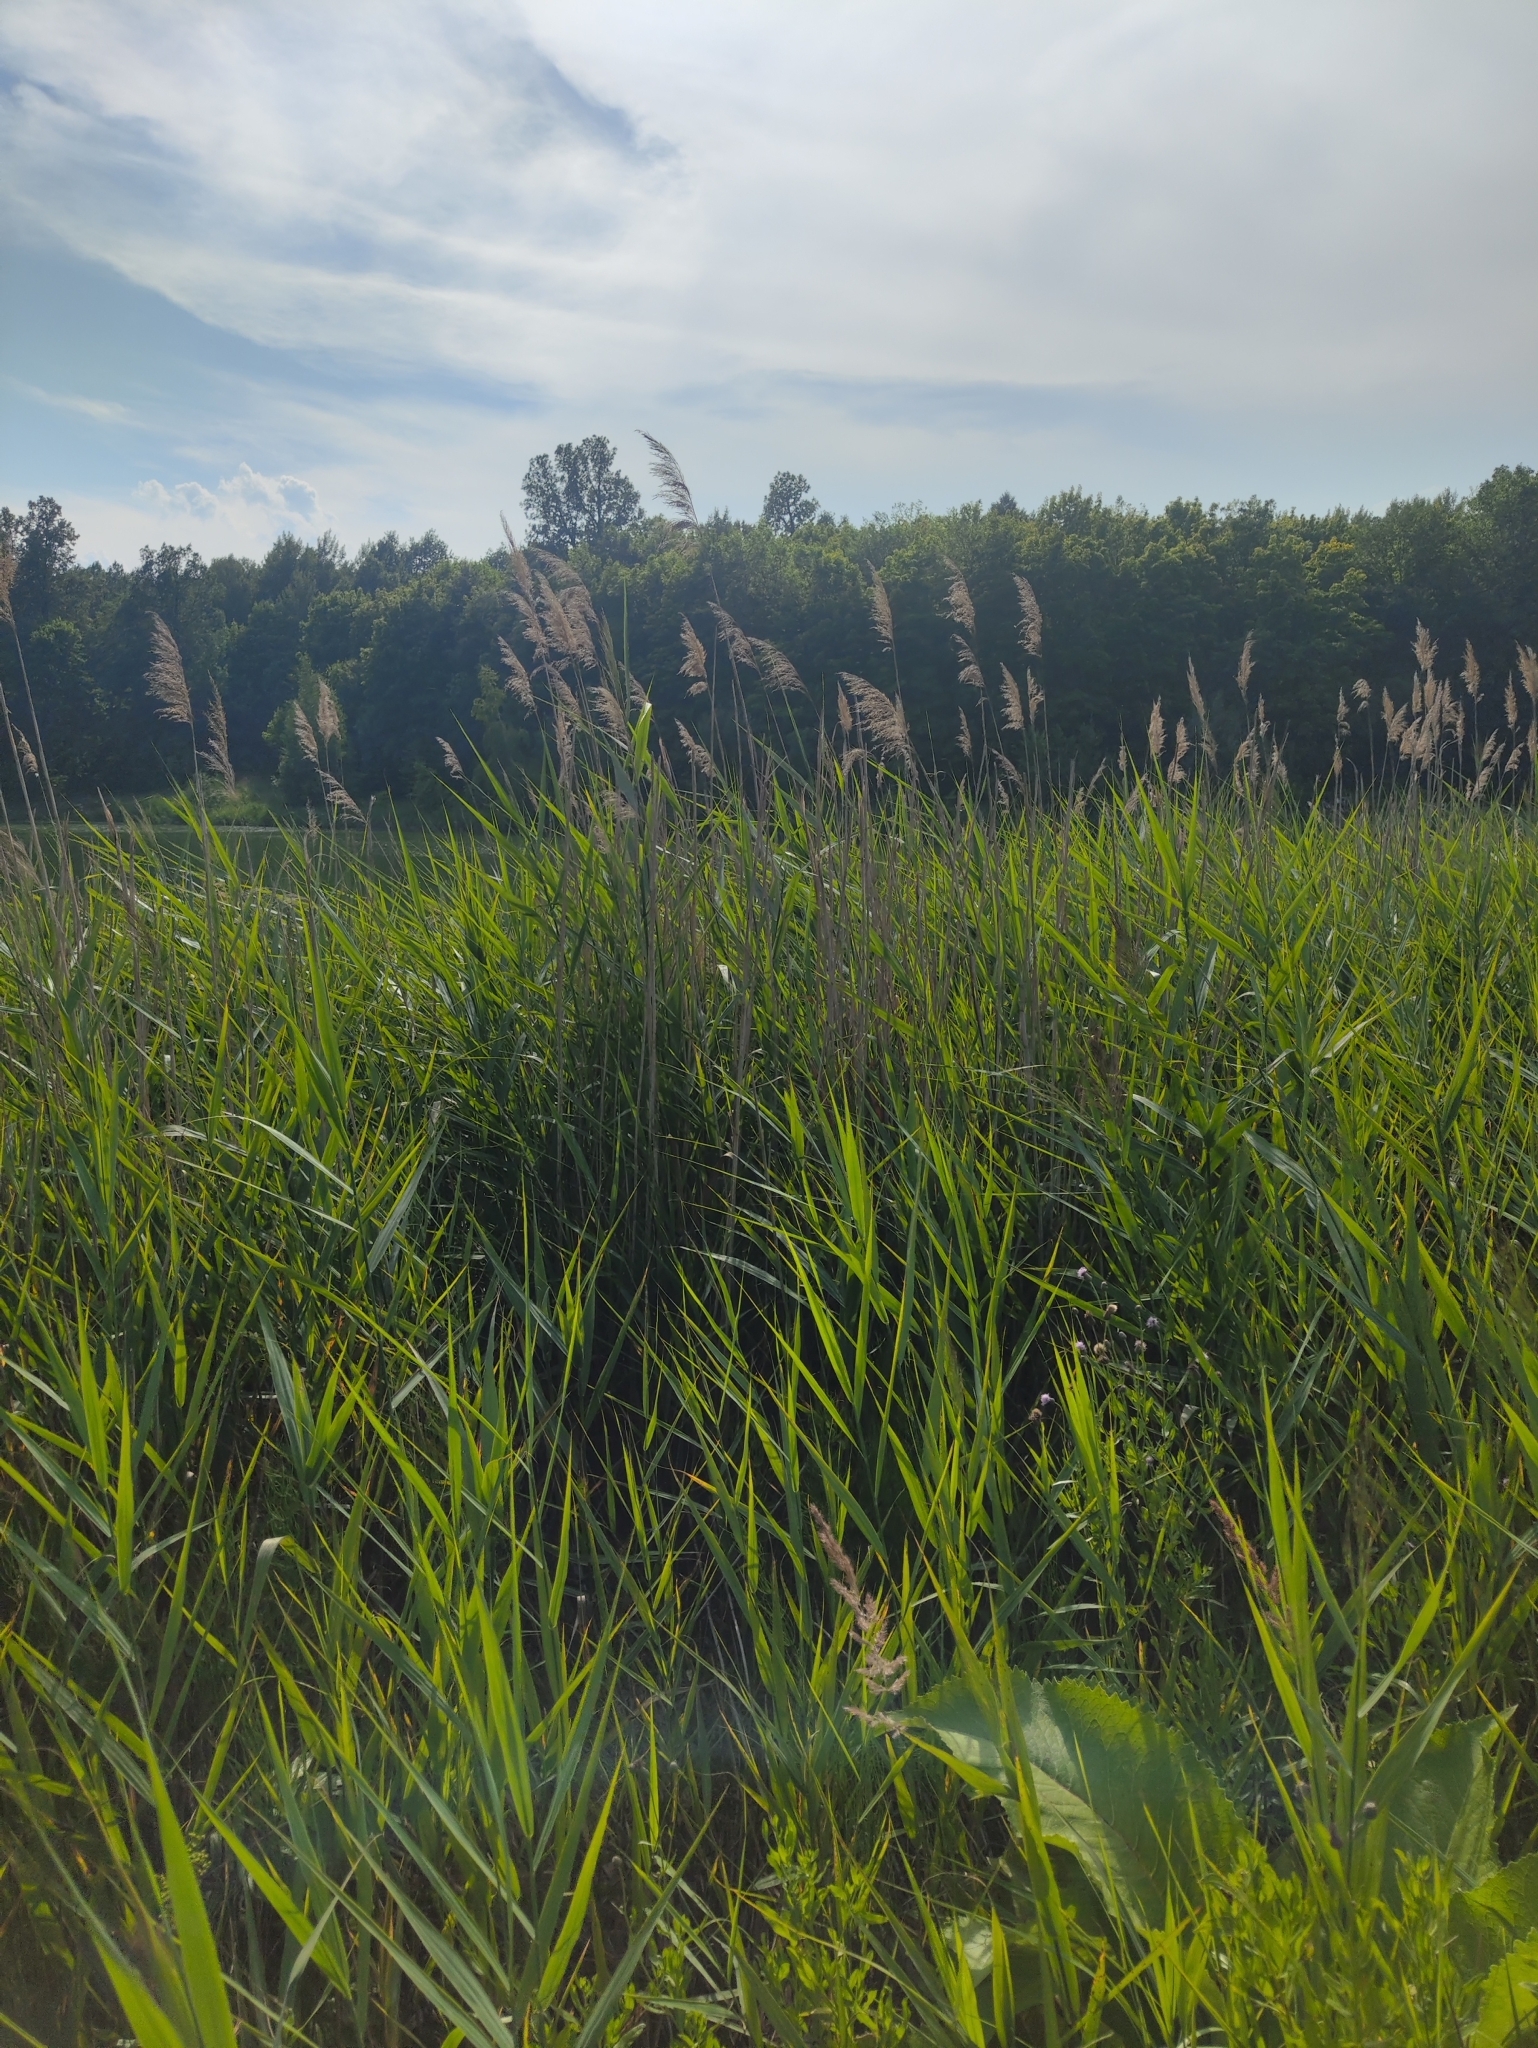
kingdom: Plantae
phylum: Tracheophyta
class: Liliopsida
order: Poales
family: Poaceae
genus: Phragmites
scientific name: Phragmites australis
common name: Common reed
